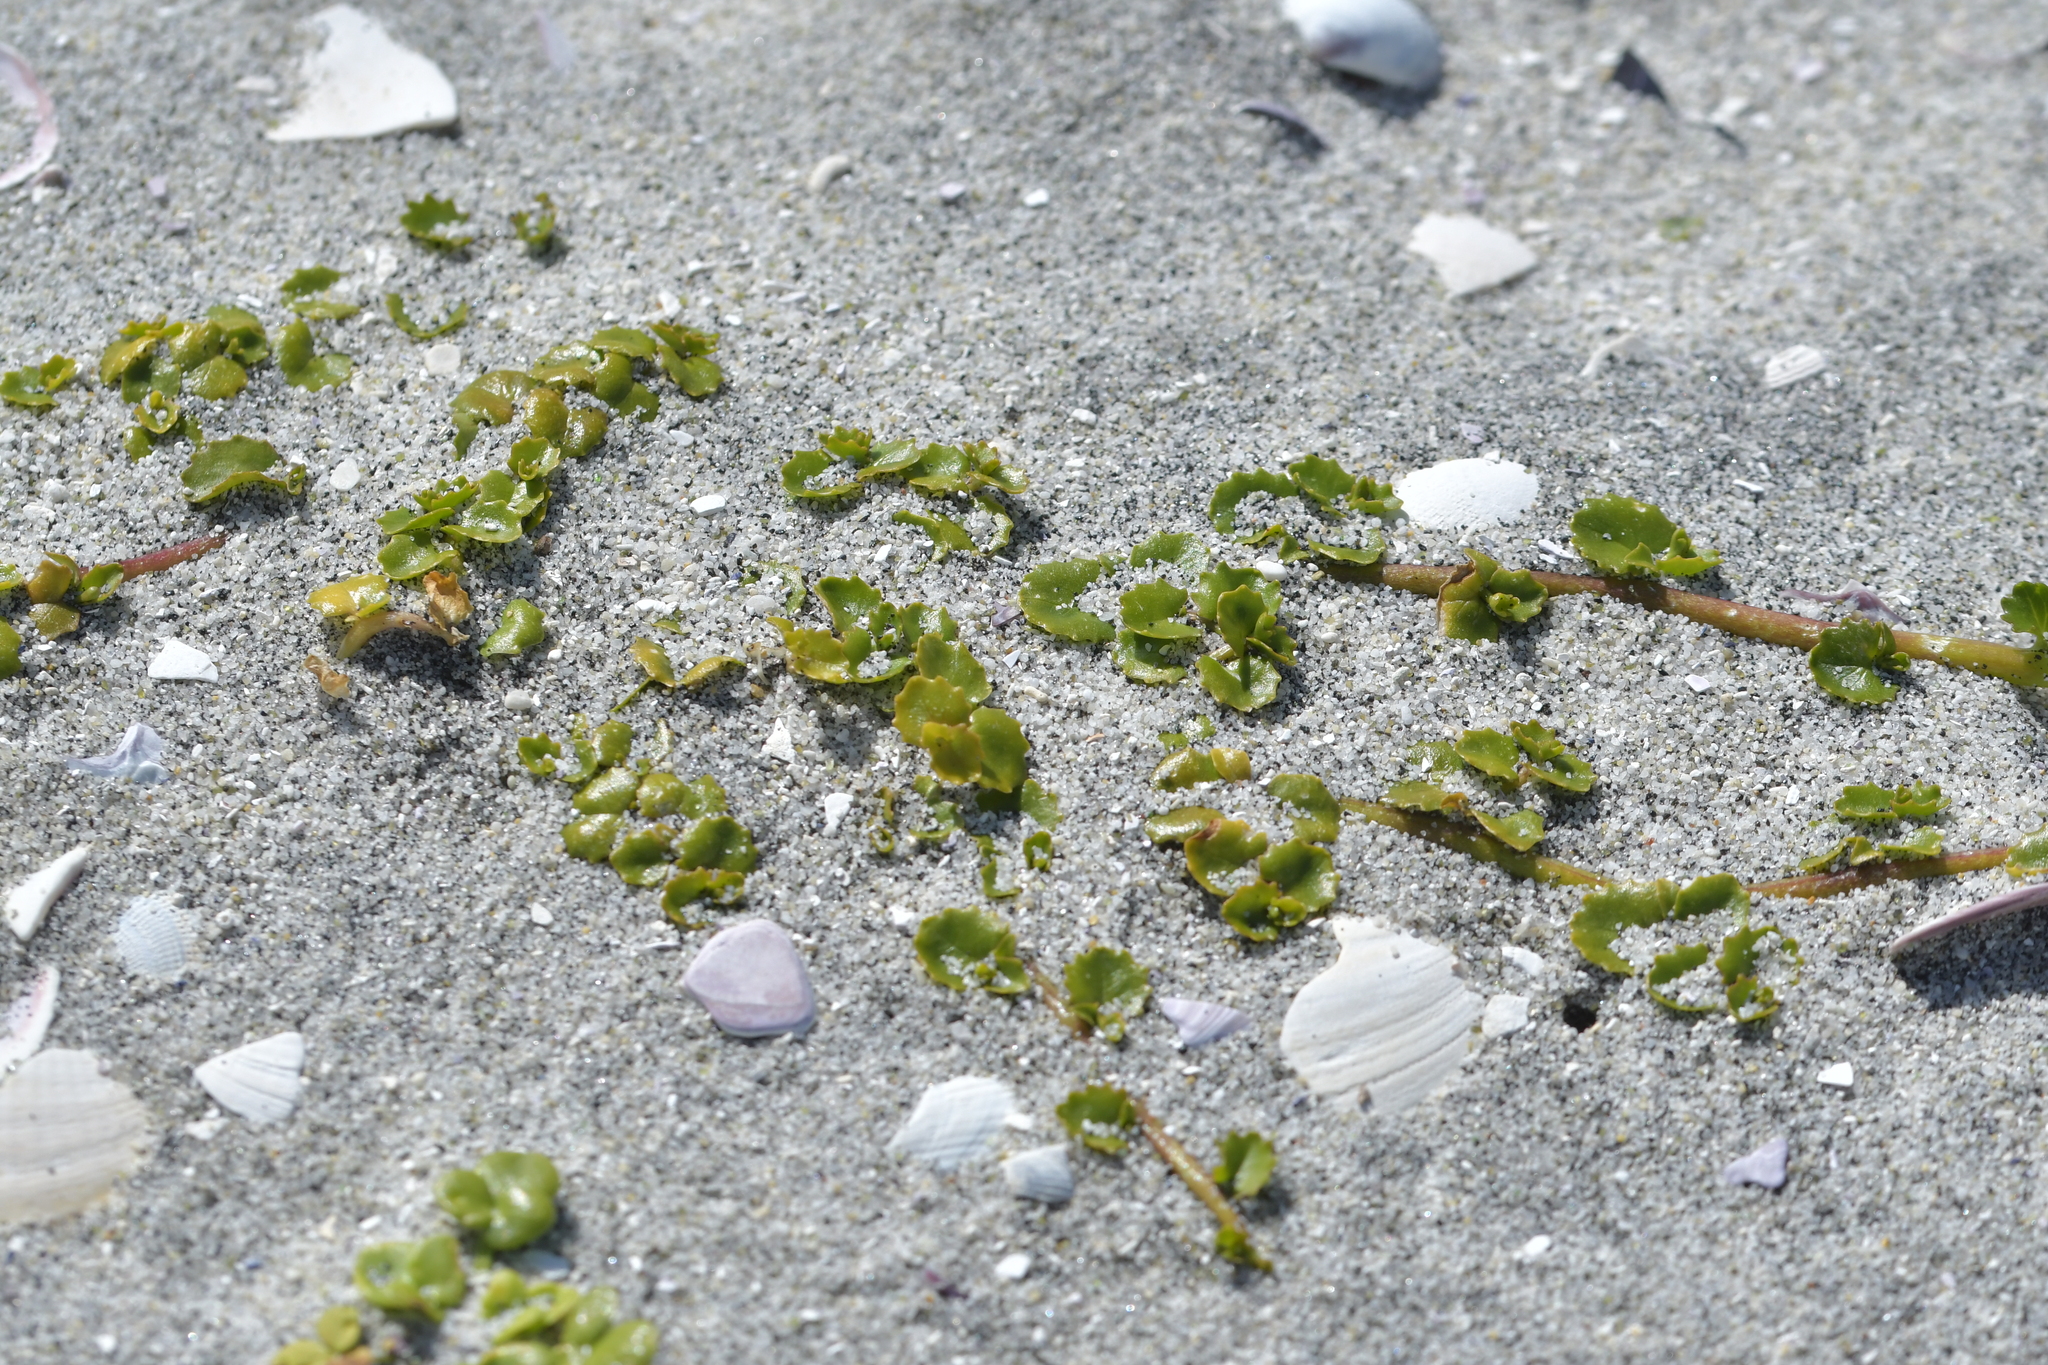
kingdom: Plantae
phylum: Tracheophyta
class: Magnoliopsida
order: Asterales
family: Campanulaceae
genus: Lobelia
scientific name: Lobelia arenaria
